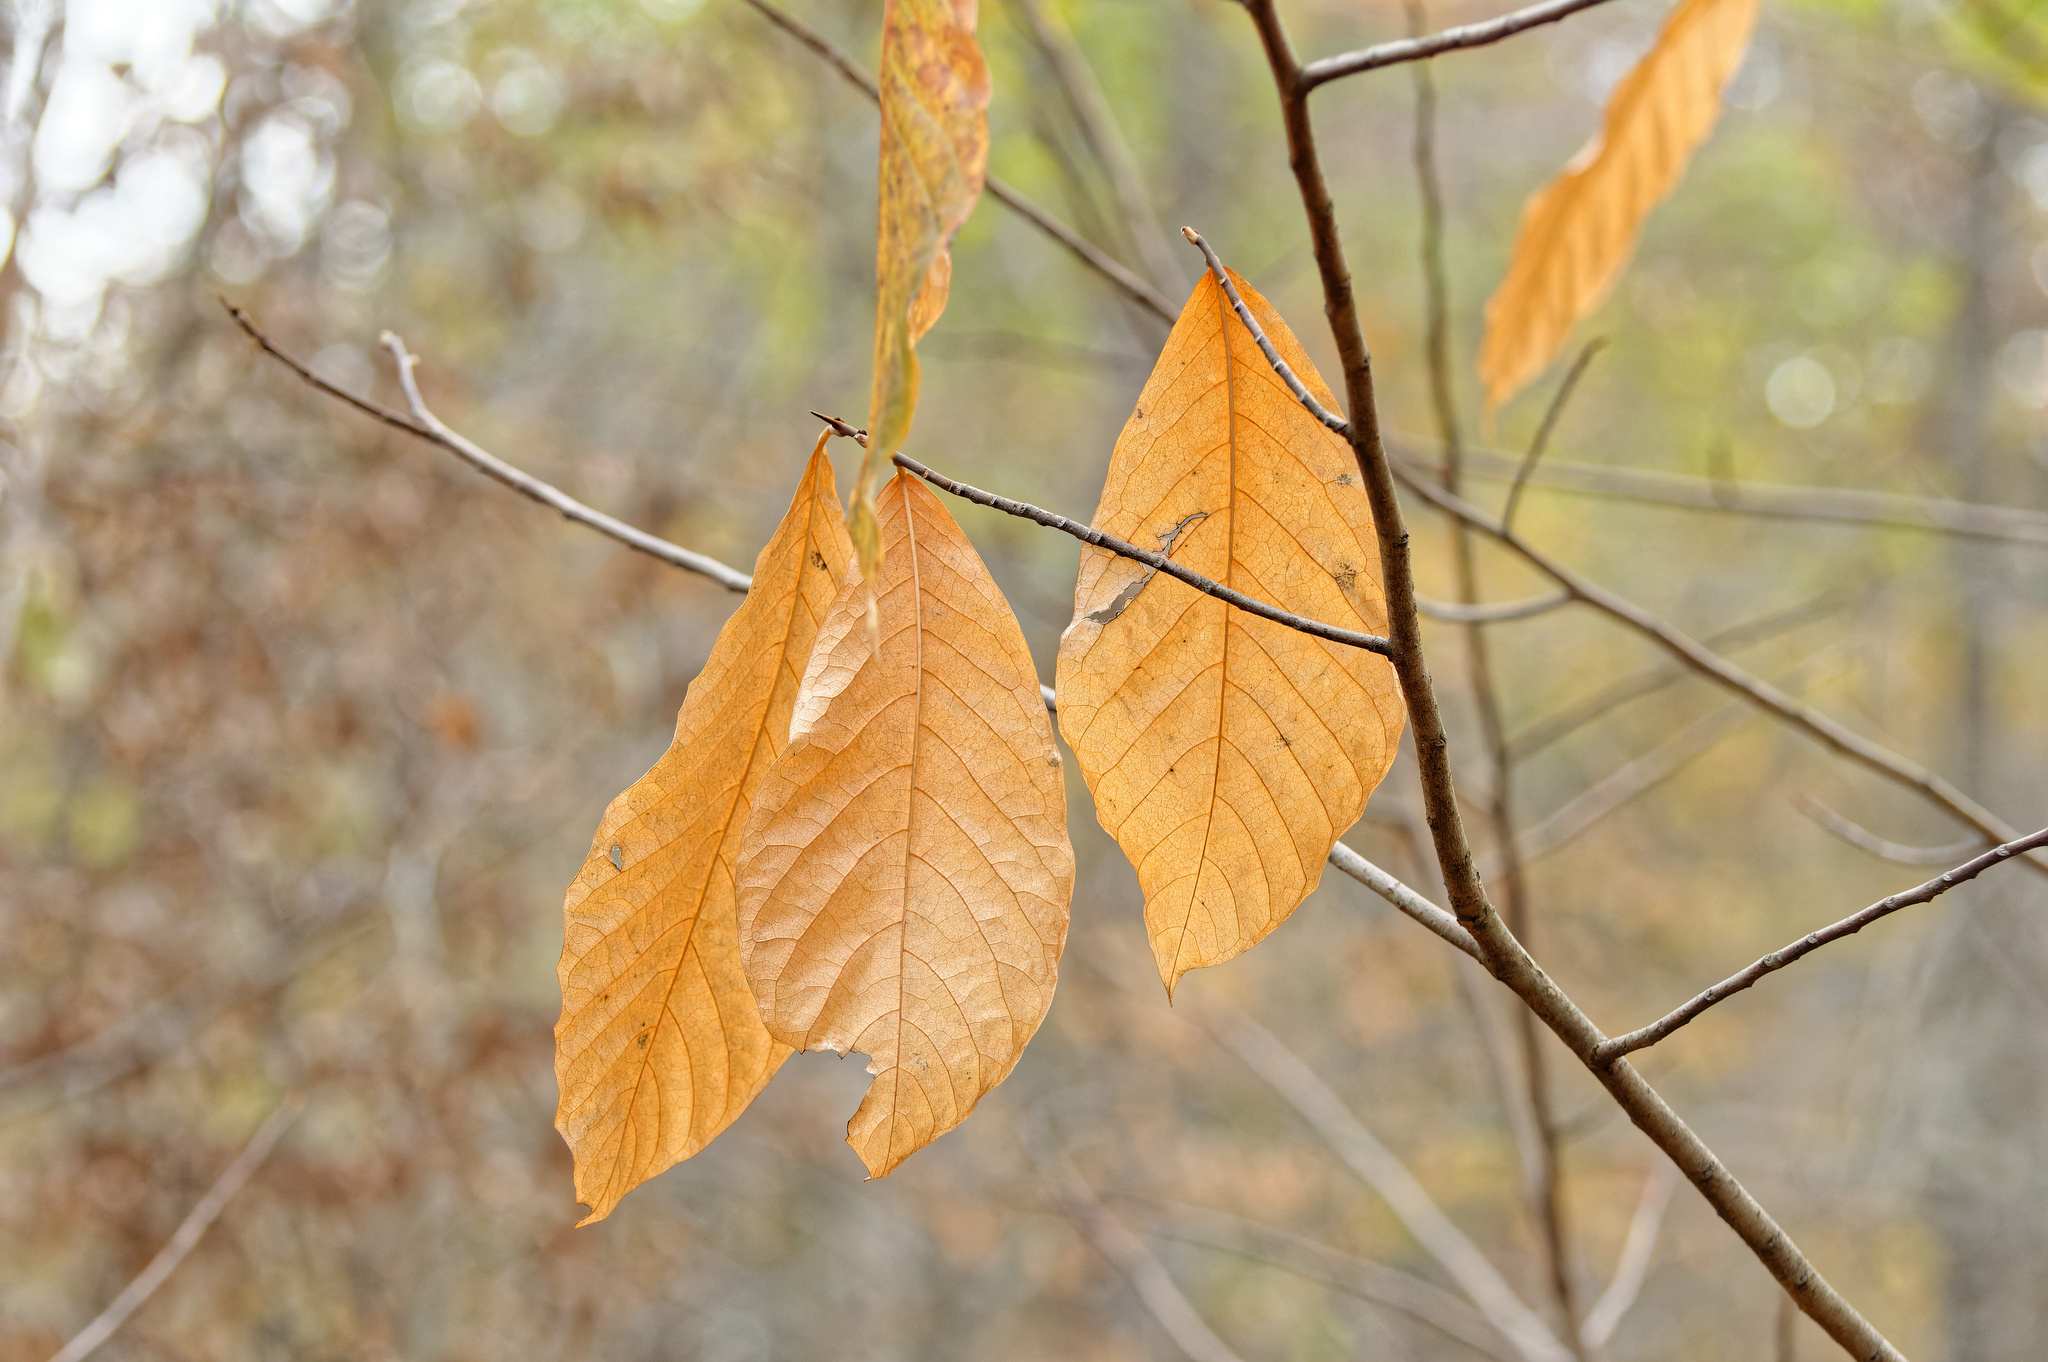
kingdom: Plantae
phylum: Tracheophyta
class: Magnoliopsida
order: Magnoliales
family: Annonaceae
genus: Asimina
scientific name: Asimina triloba
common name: Dog-banana
